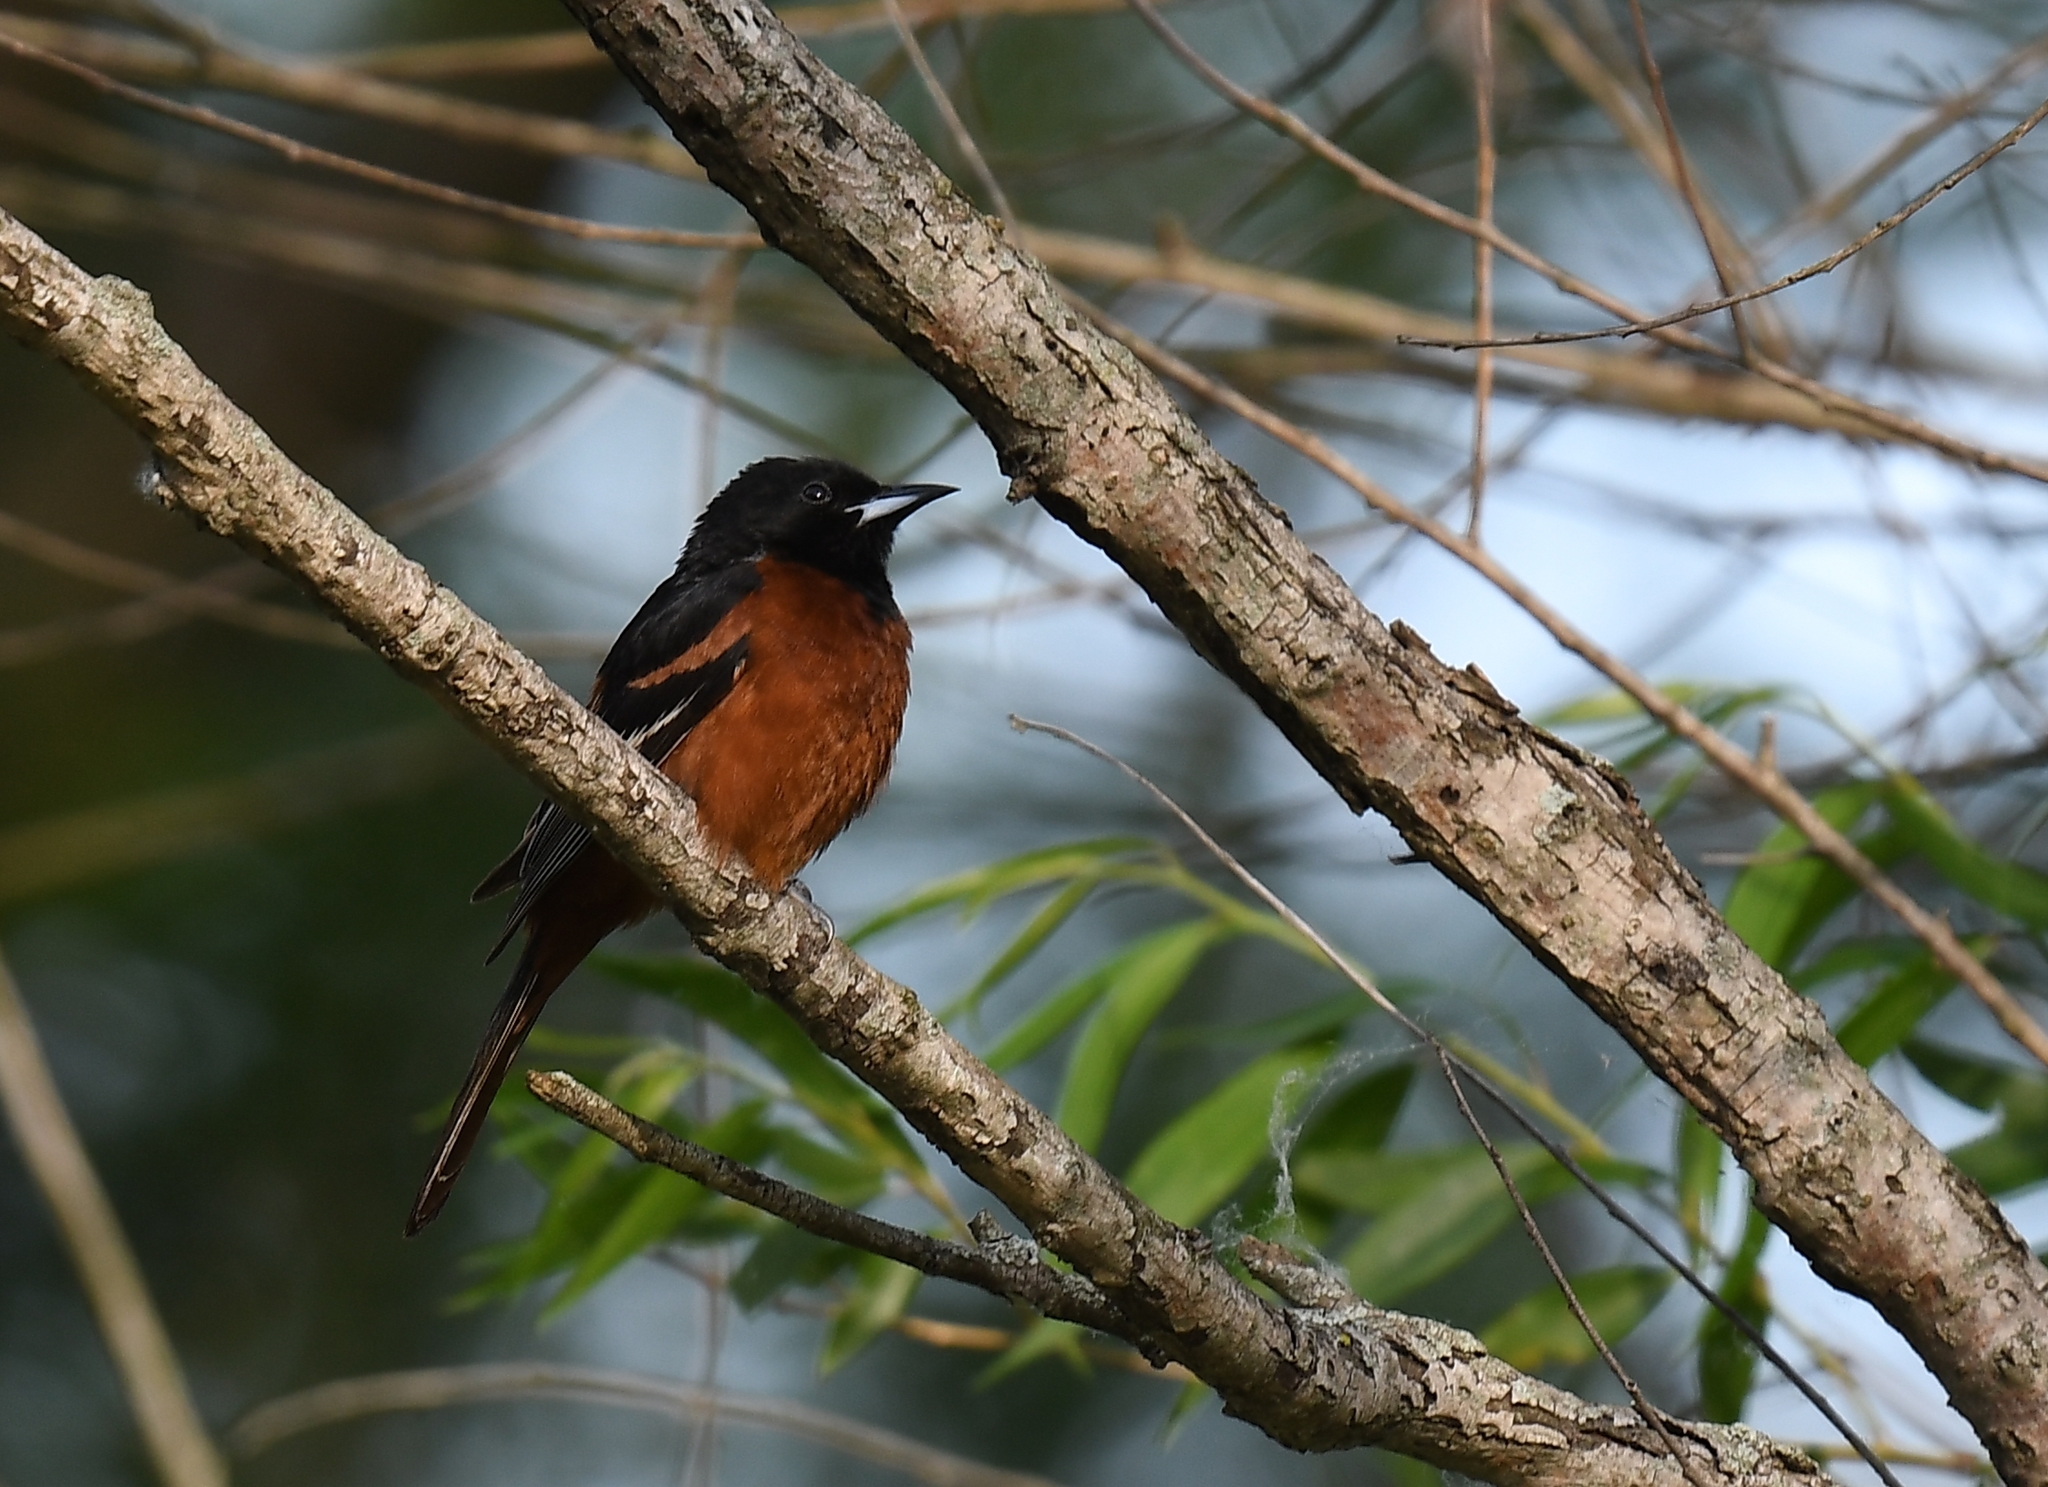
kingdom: Animalia
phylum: Chordata
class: Aves
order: Passeriformes
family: Icteridae
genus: Icterus
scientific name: Icterus spurius
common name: Orchard oriole
